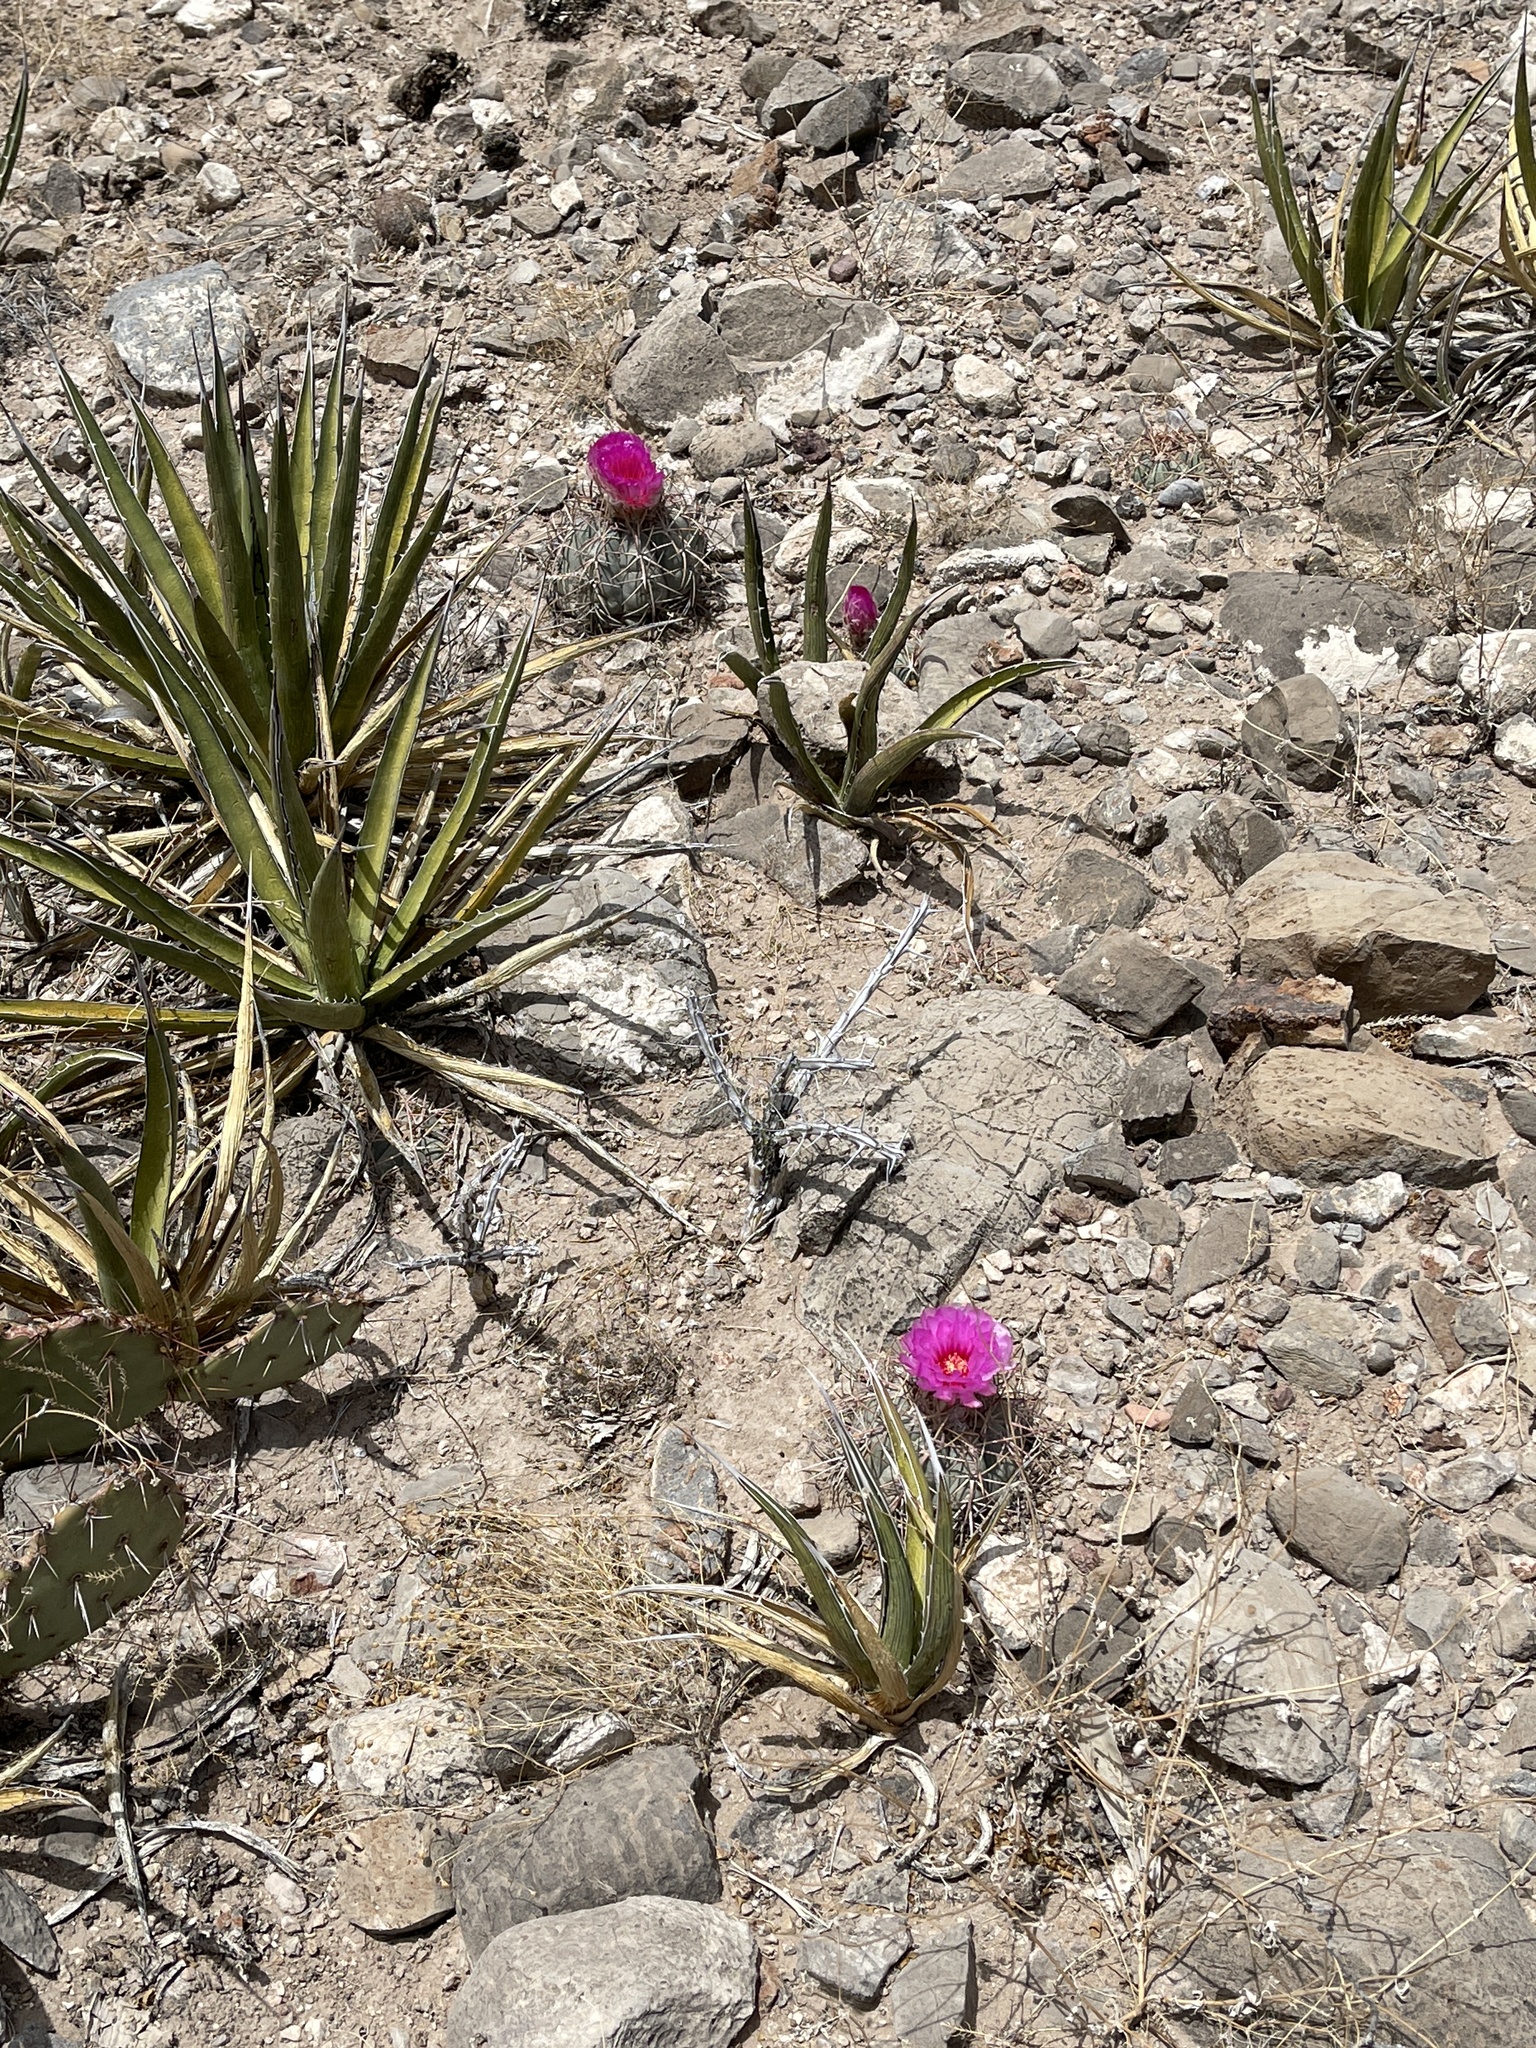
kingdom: Plantae
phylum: Tracheophyta
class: Magnoliopsida
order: Caryophyllales
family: Cactaceae
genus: Echinocactus
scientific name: Echinocactus horizonthalonius
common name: Devilshead
